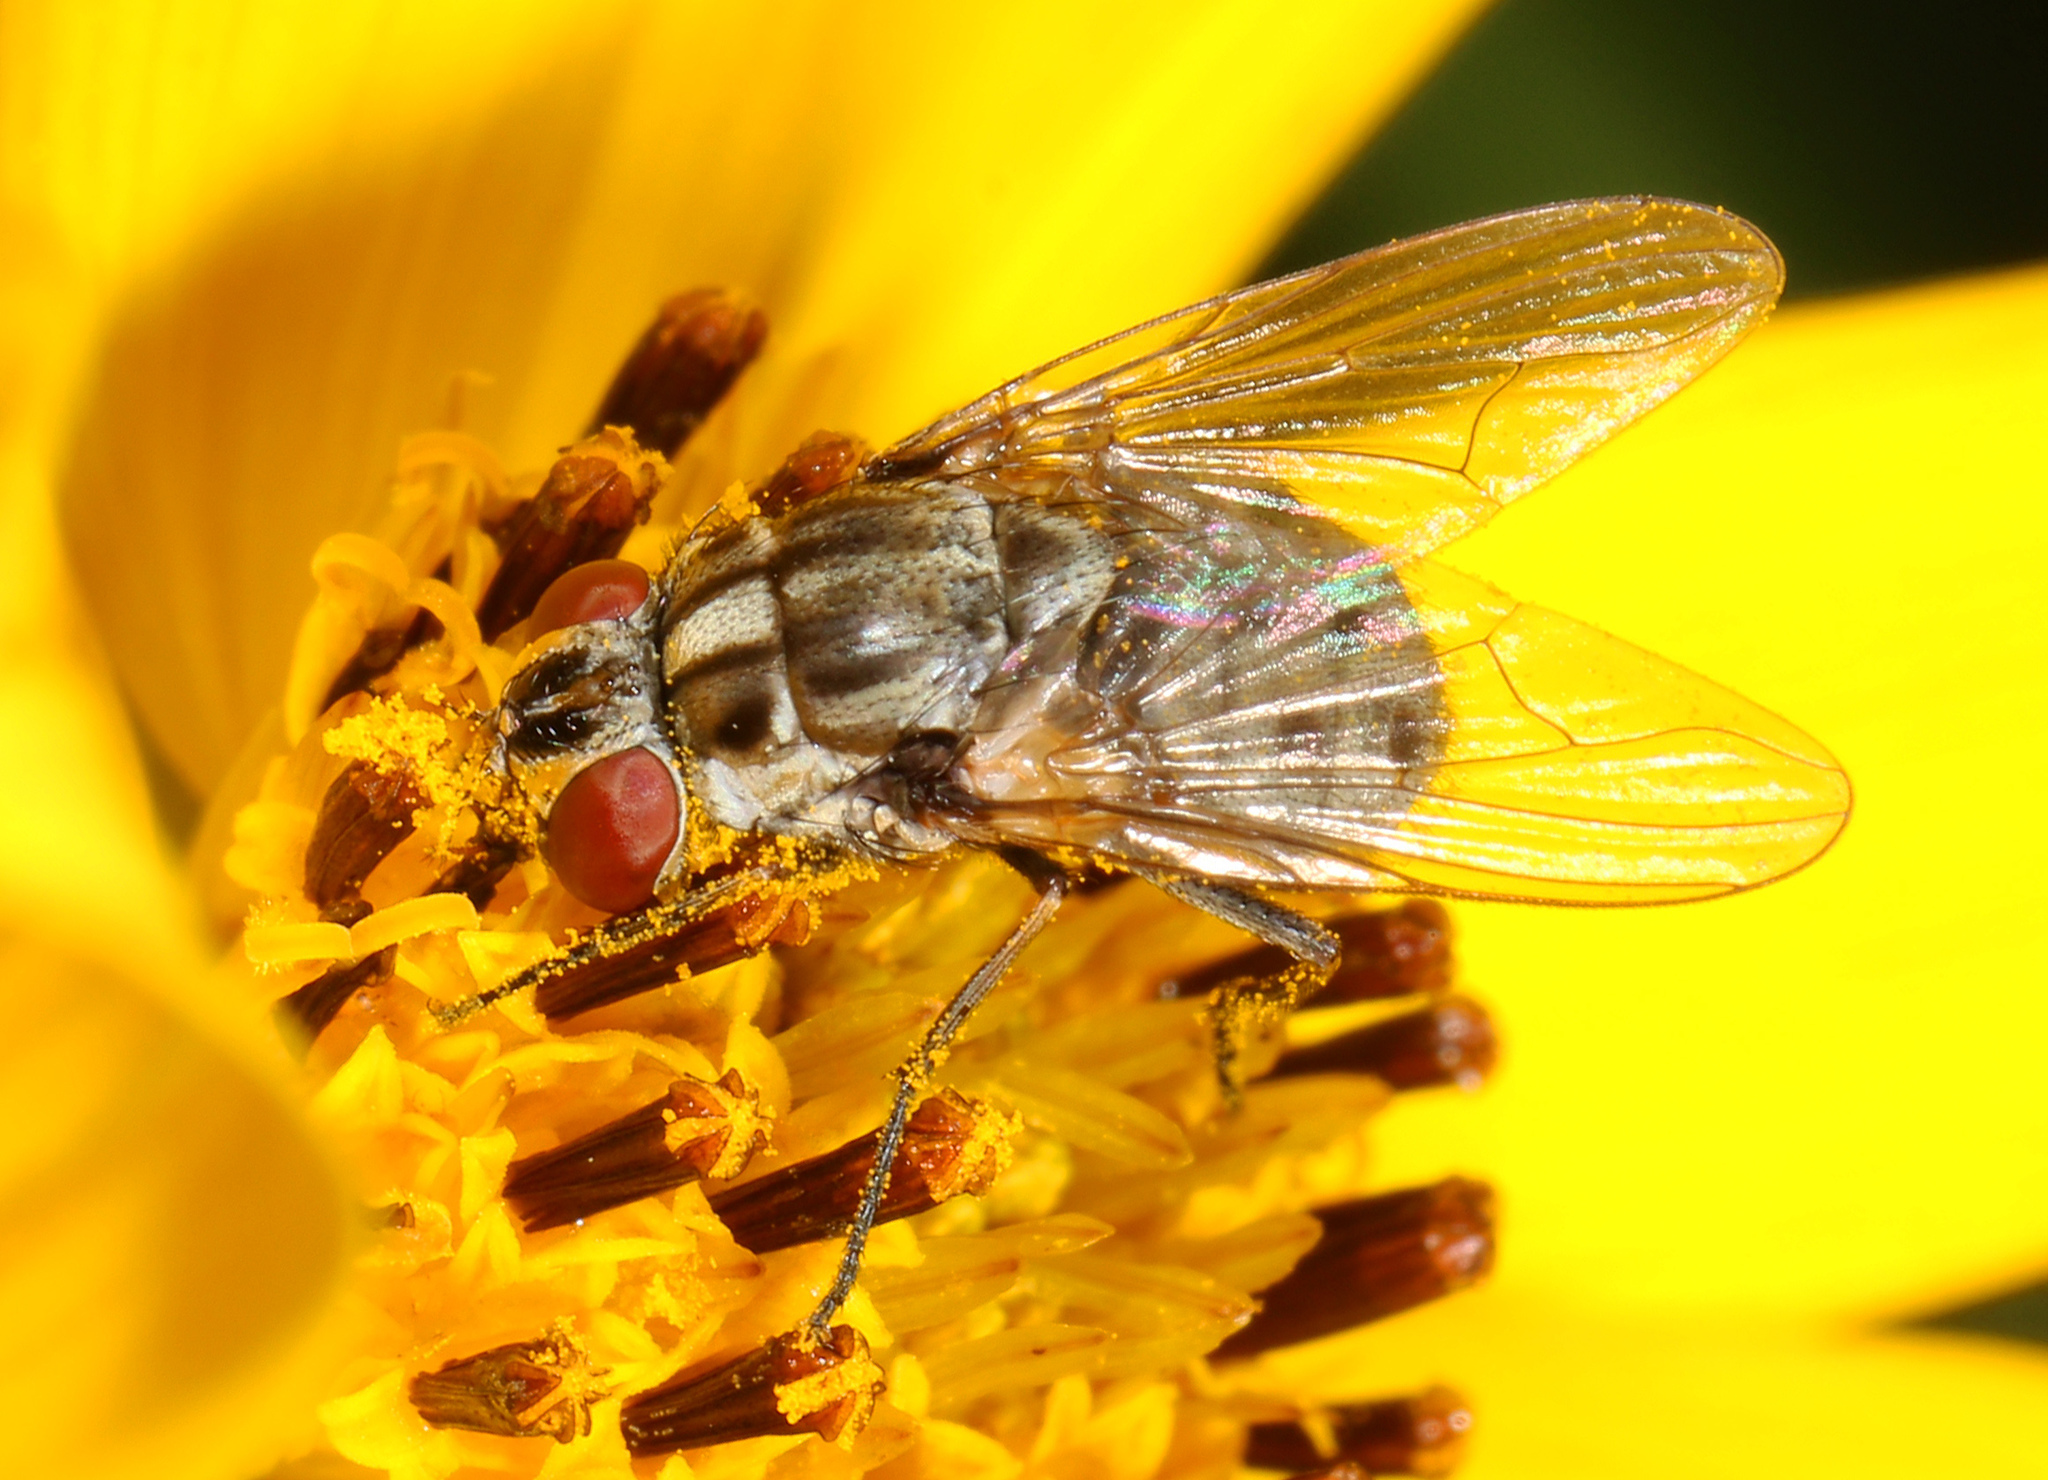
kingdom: Animalia
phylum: Arthropoda
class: Insecta
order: Diptera
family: Muscidae
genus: Stomoxys
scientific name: Stomoxys calcitrans
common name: Stable fly
